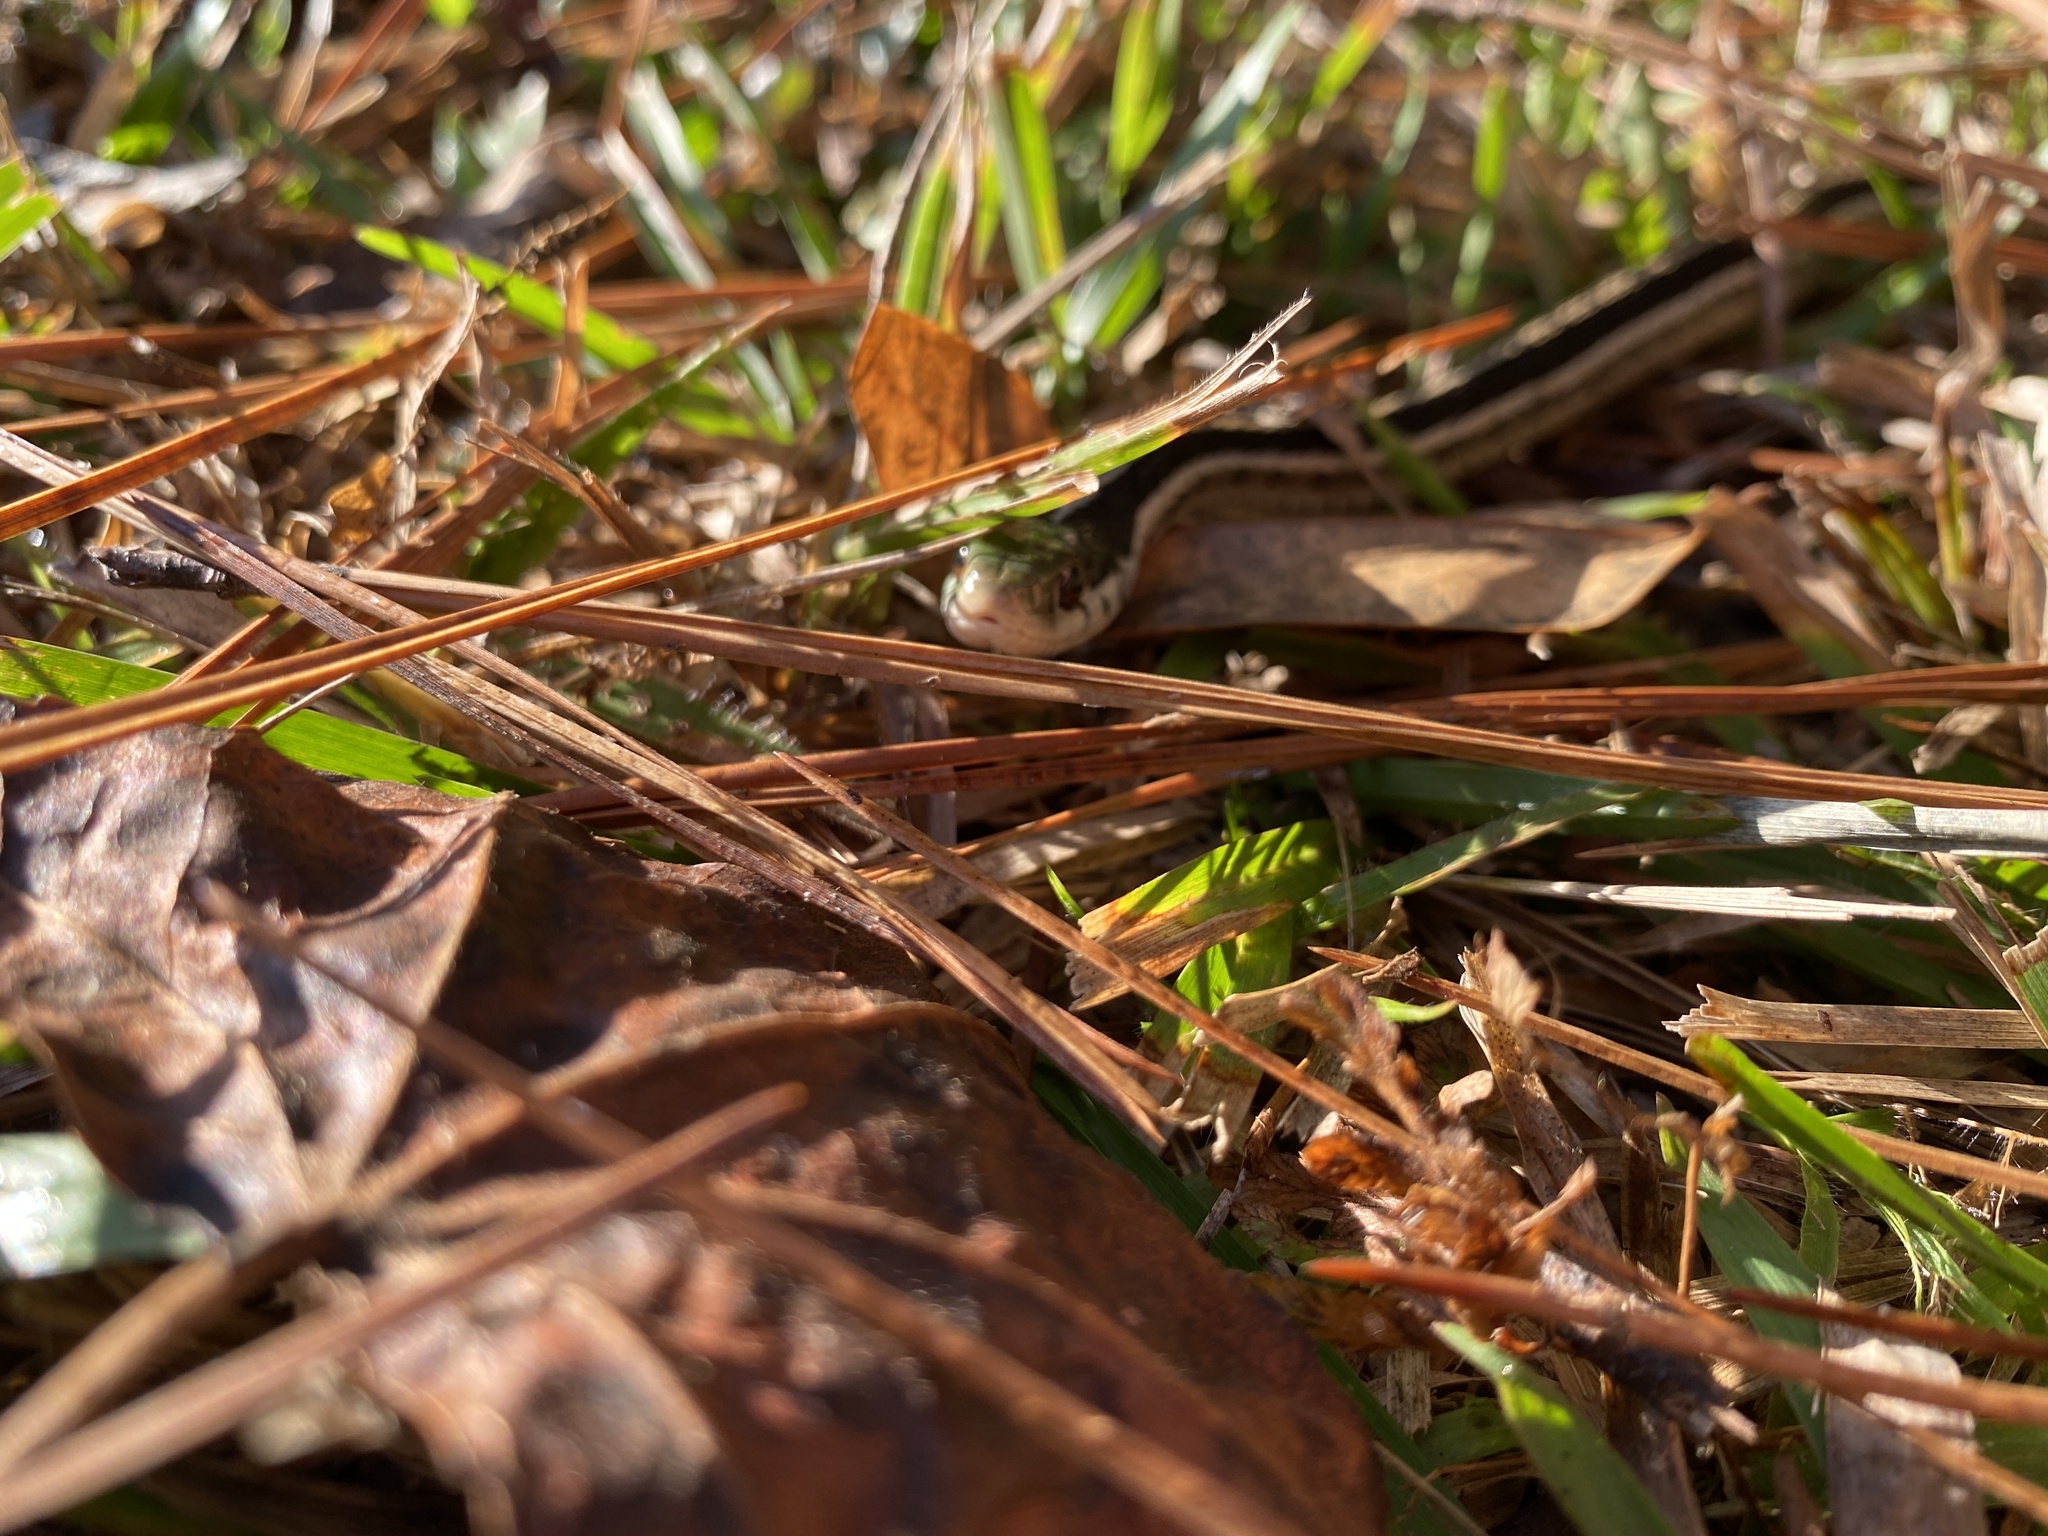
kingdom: Animalia
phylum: Chordata
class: Squamata
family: Colubridae
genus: Thamnophis
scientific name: Thamnophis sirtalis
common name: Common garter snake
